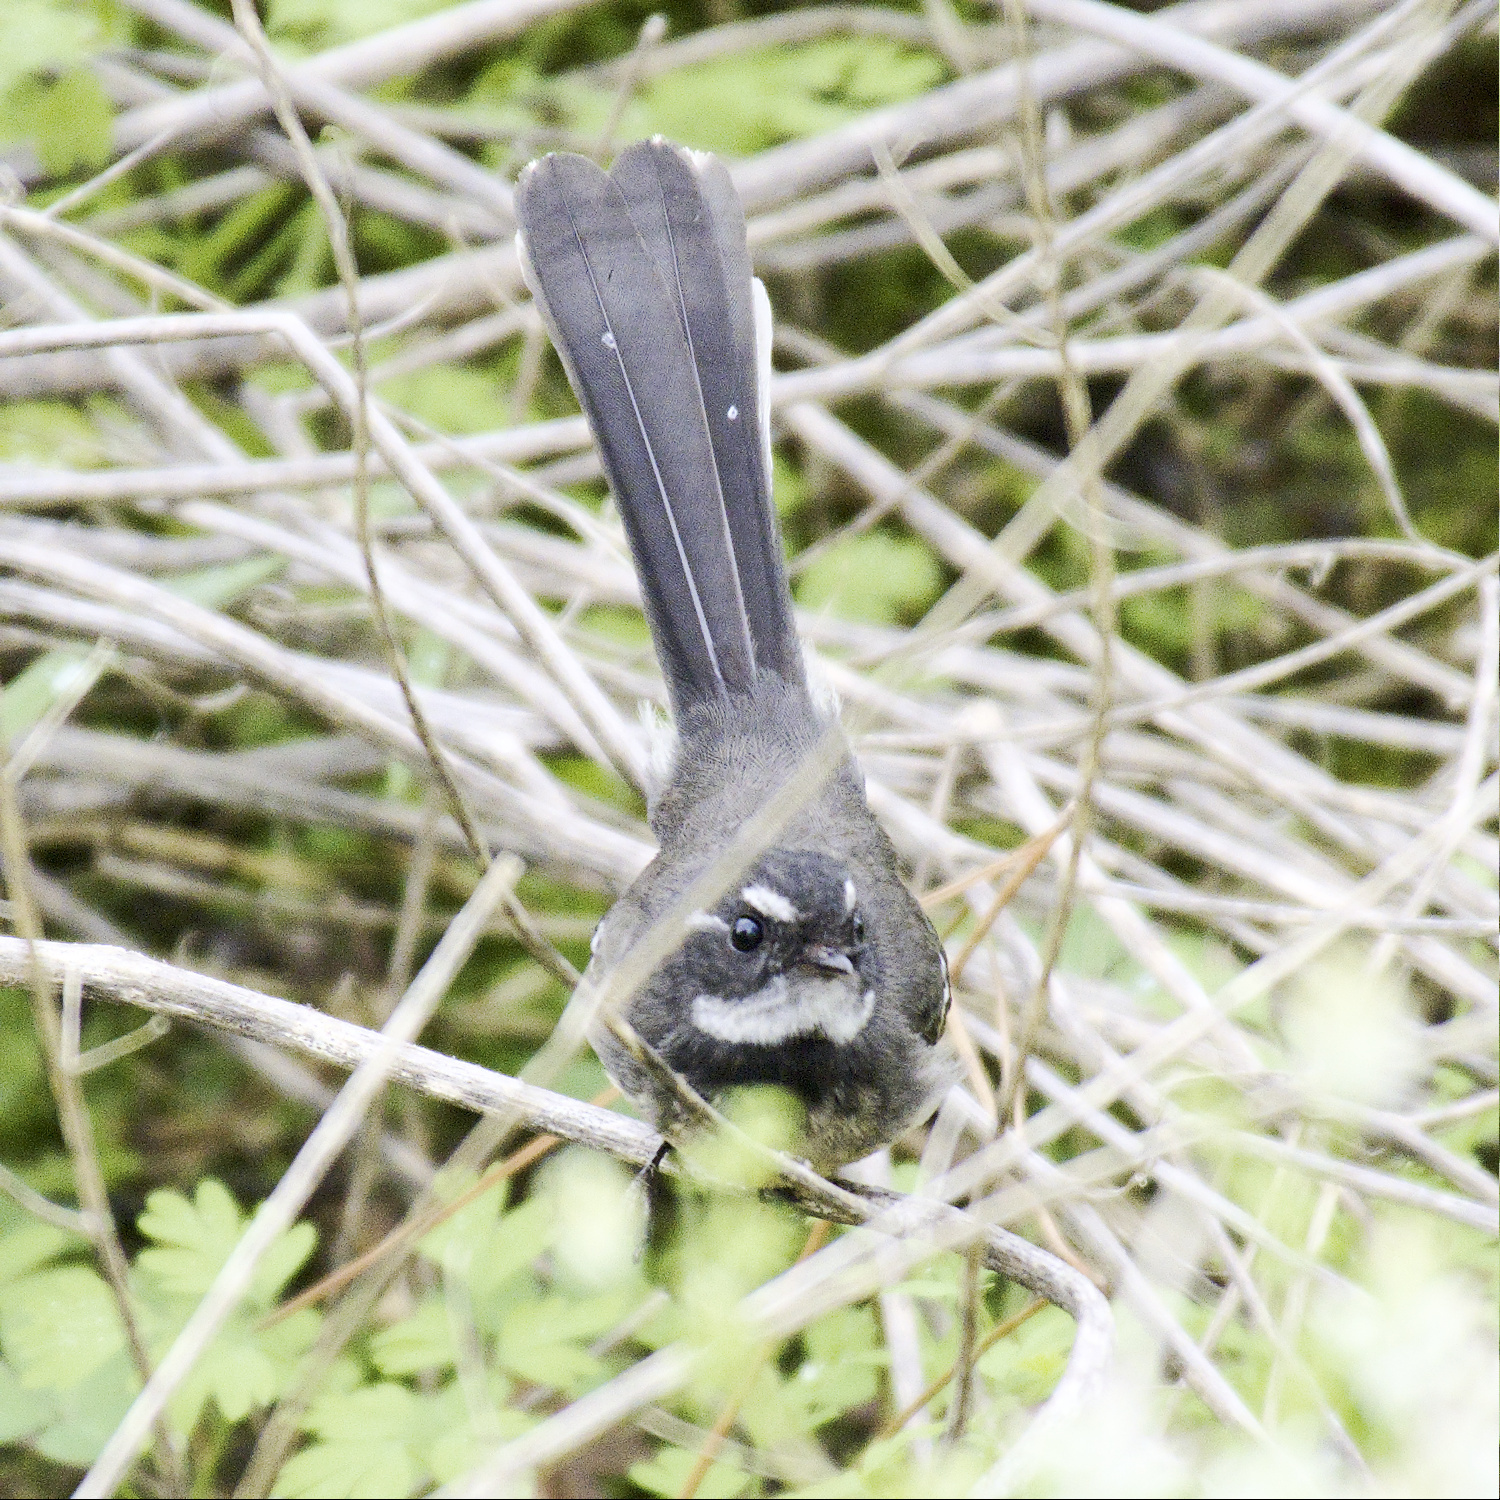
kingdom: Animalia
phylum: Chordata
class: Aves
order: Passeriformes
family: Rhipiduridae
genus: Rhipidura
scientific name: Rhipidura albiscapa
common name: Grey fantail
